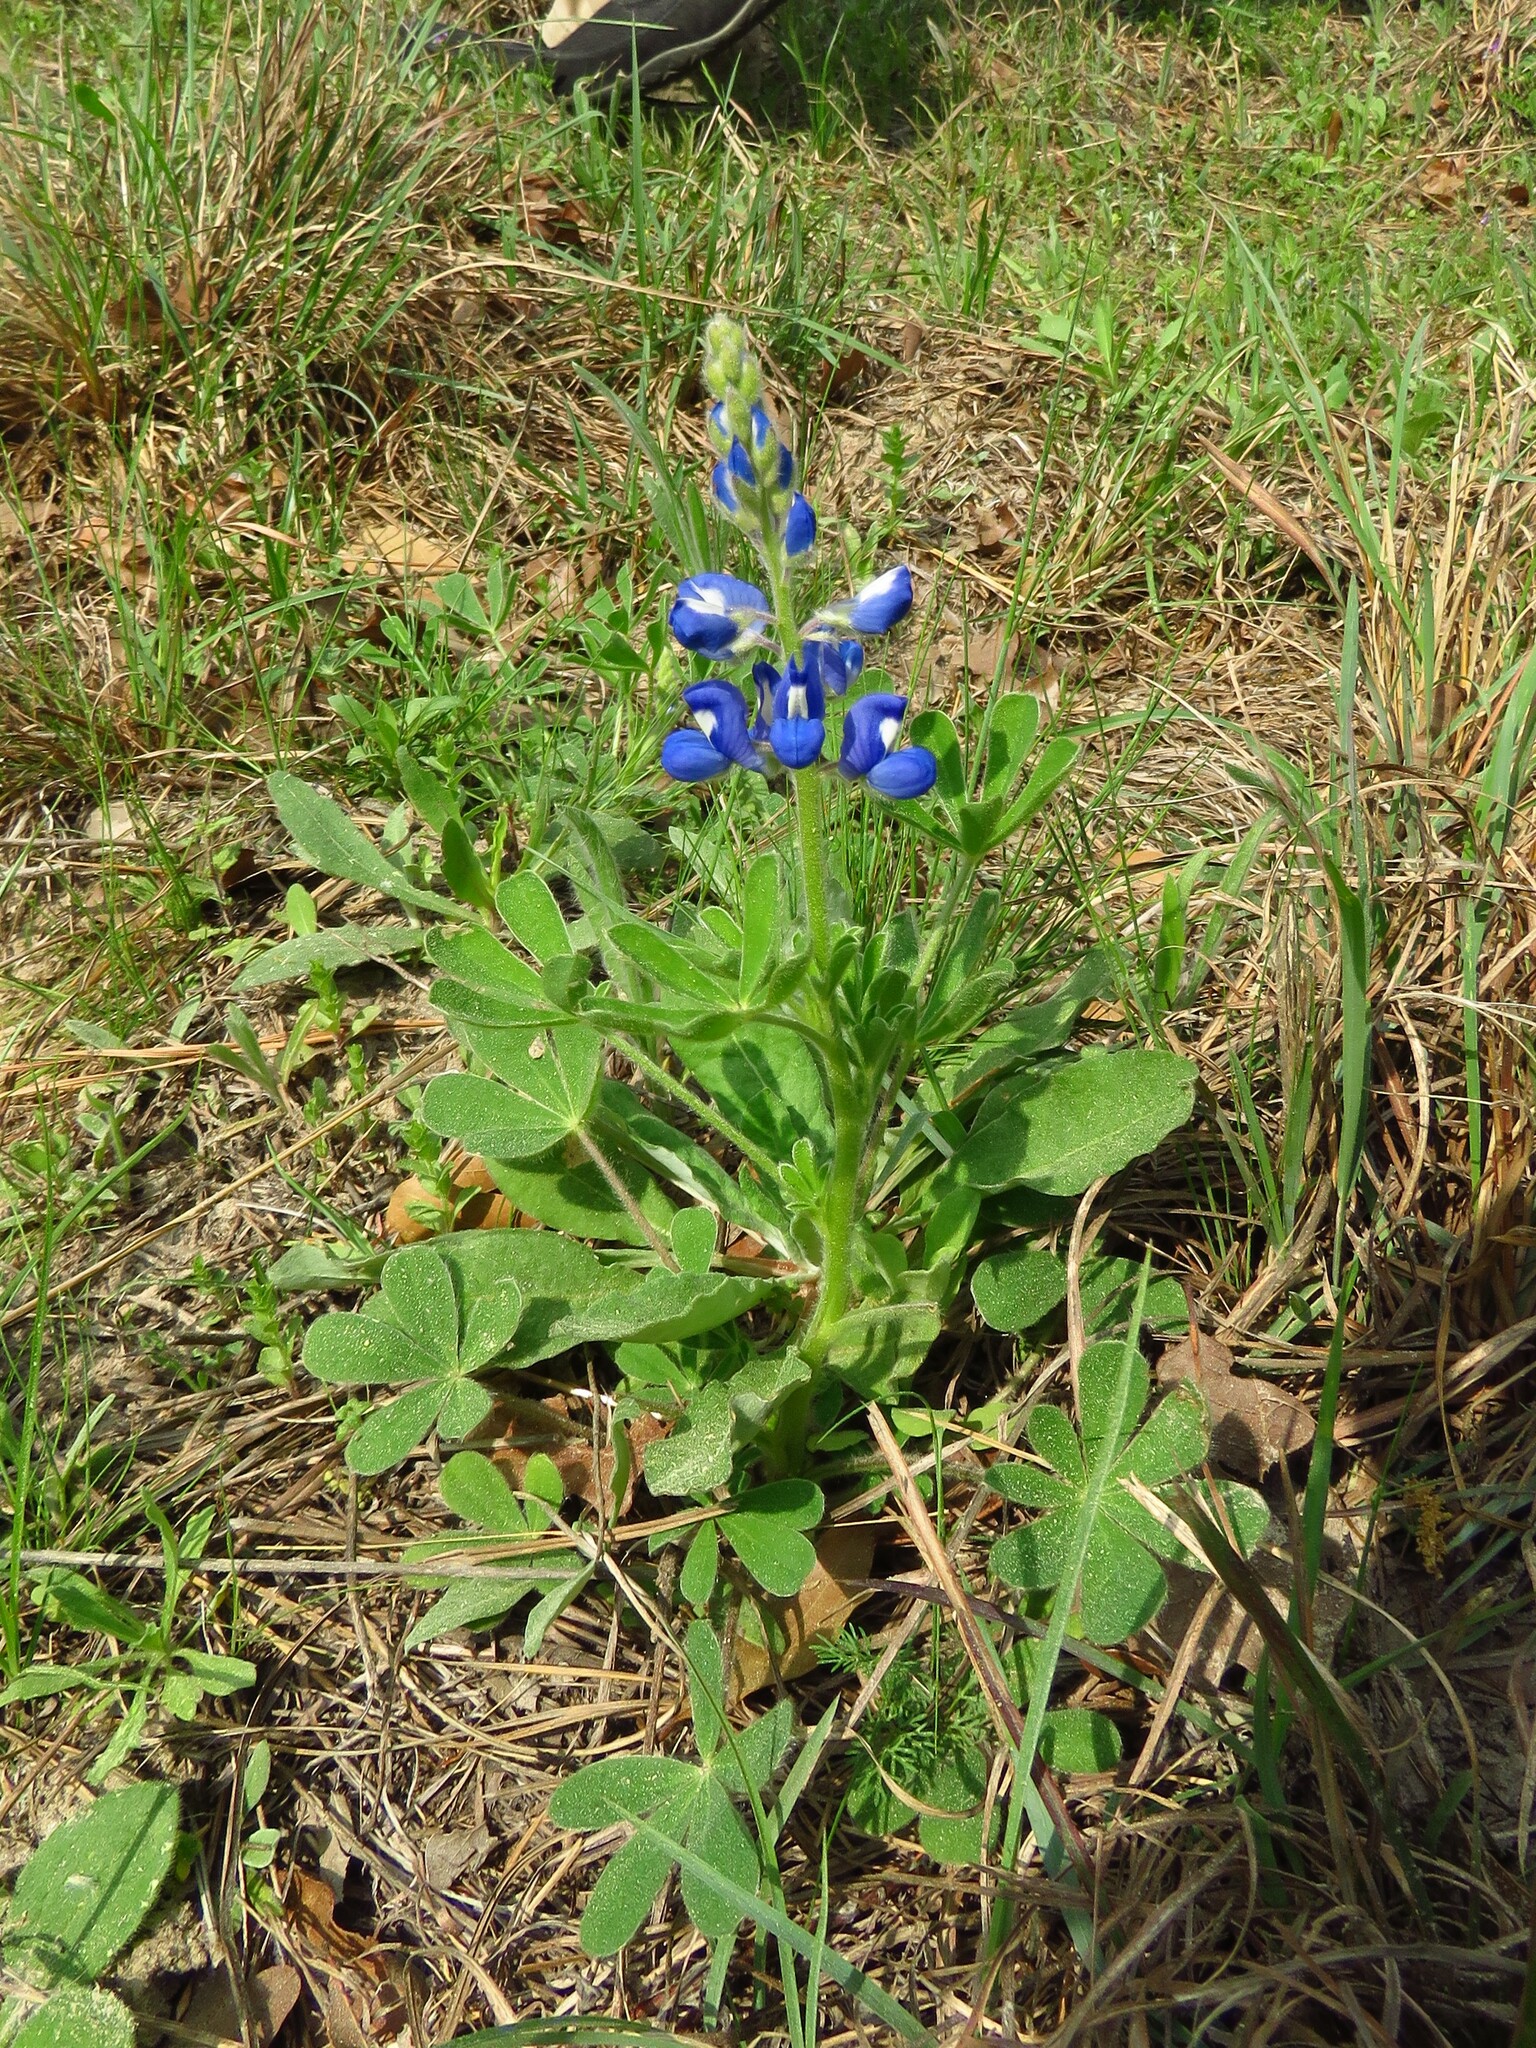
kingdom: Plantae
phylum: Tracheophyta
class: Magnoliopsida
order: Fabales
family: Fabaceae
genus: Lupinus
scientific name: Lupinus subcarnosus
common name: Texas bluebonnet
